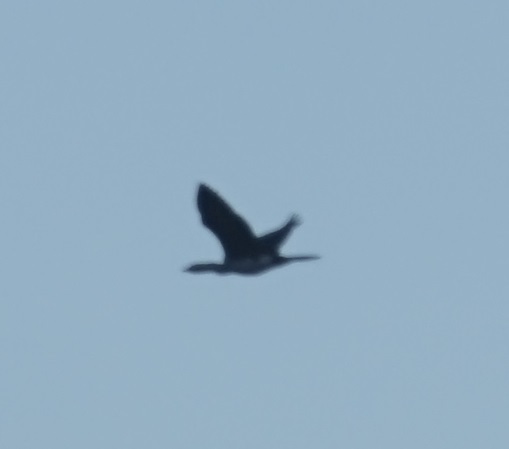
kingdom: Animalia
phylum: Chordata
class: Aves
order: Suliformes
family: Phalacrocoracidae
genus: Microcarbo
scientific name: Microcarbo melanoleucos
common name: Little pied cormorant
